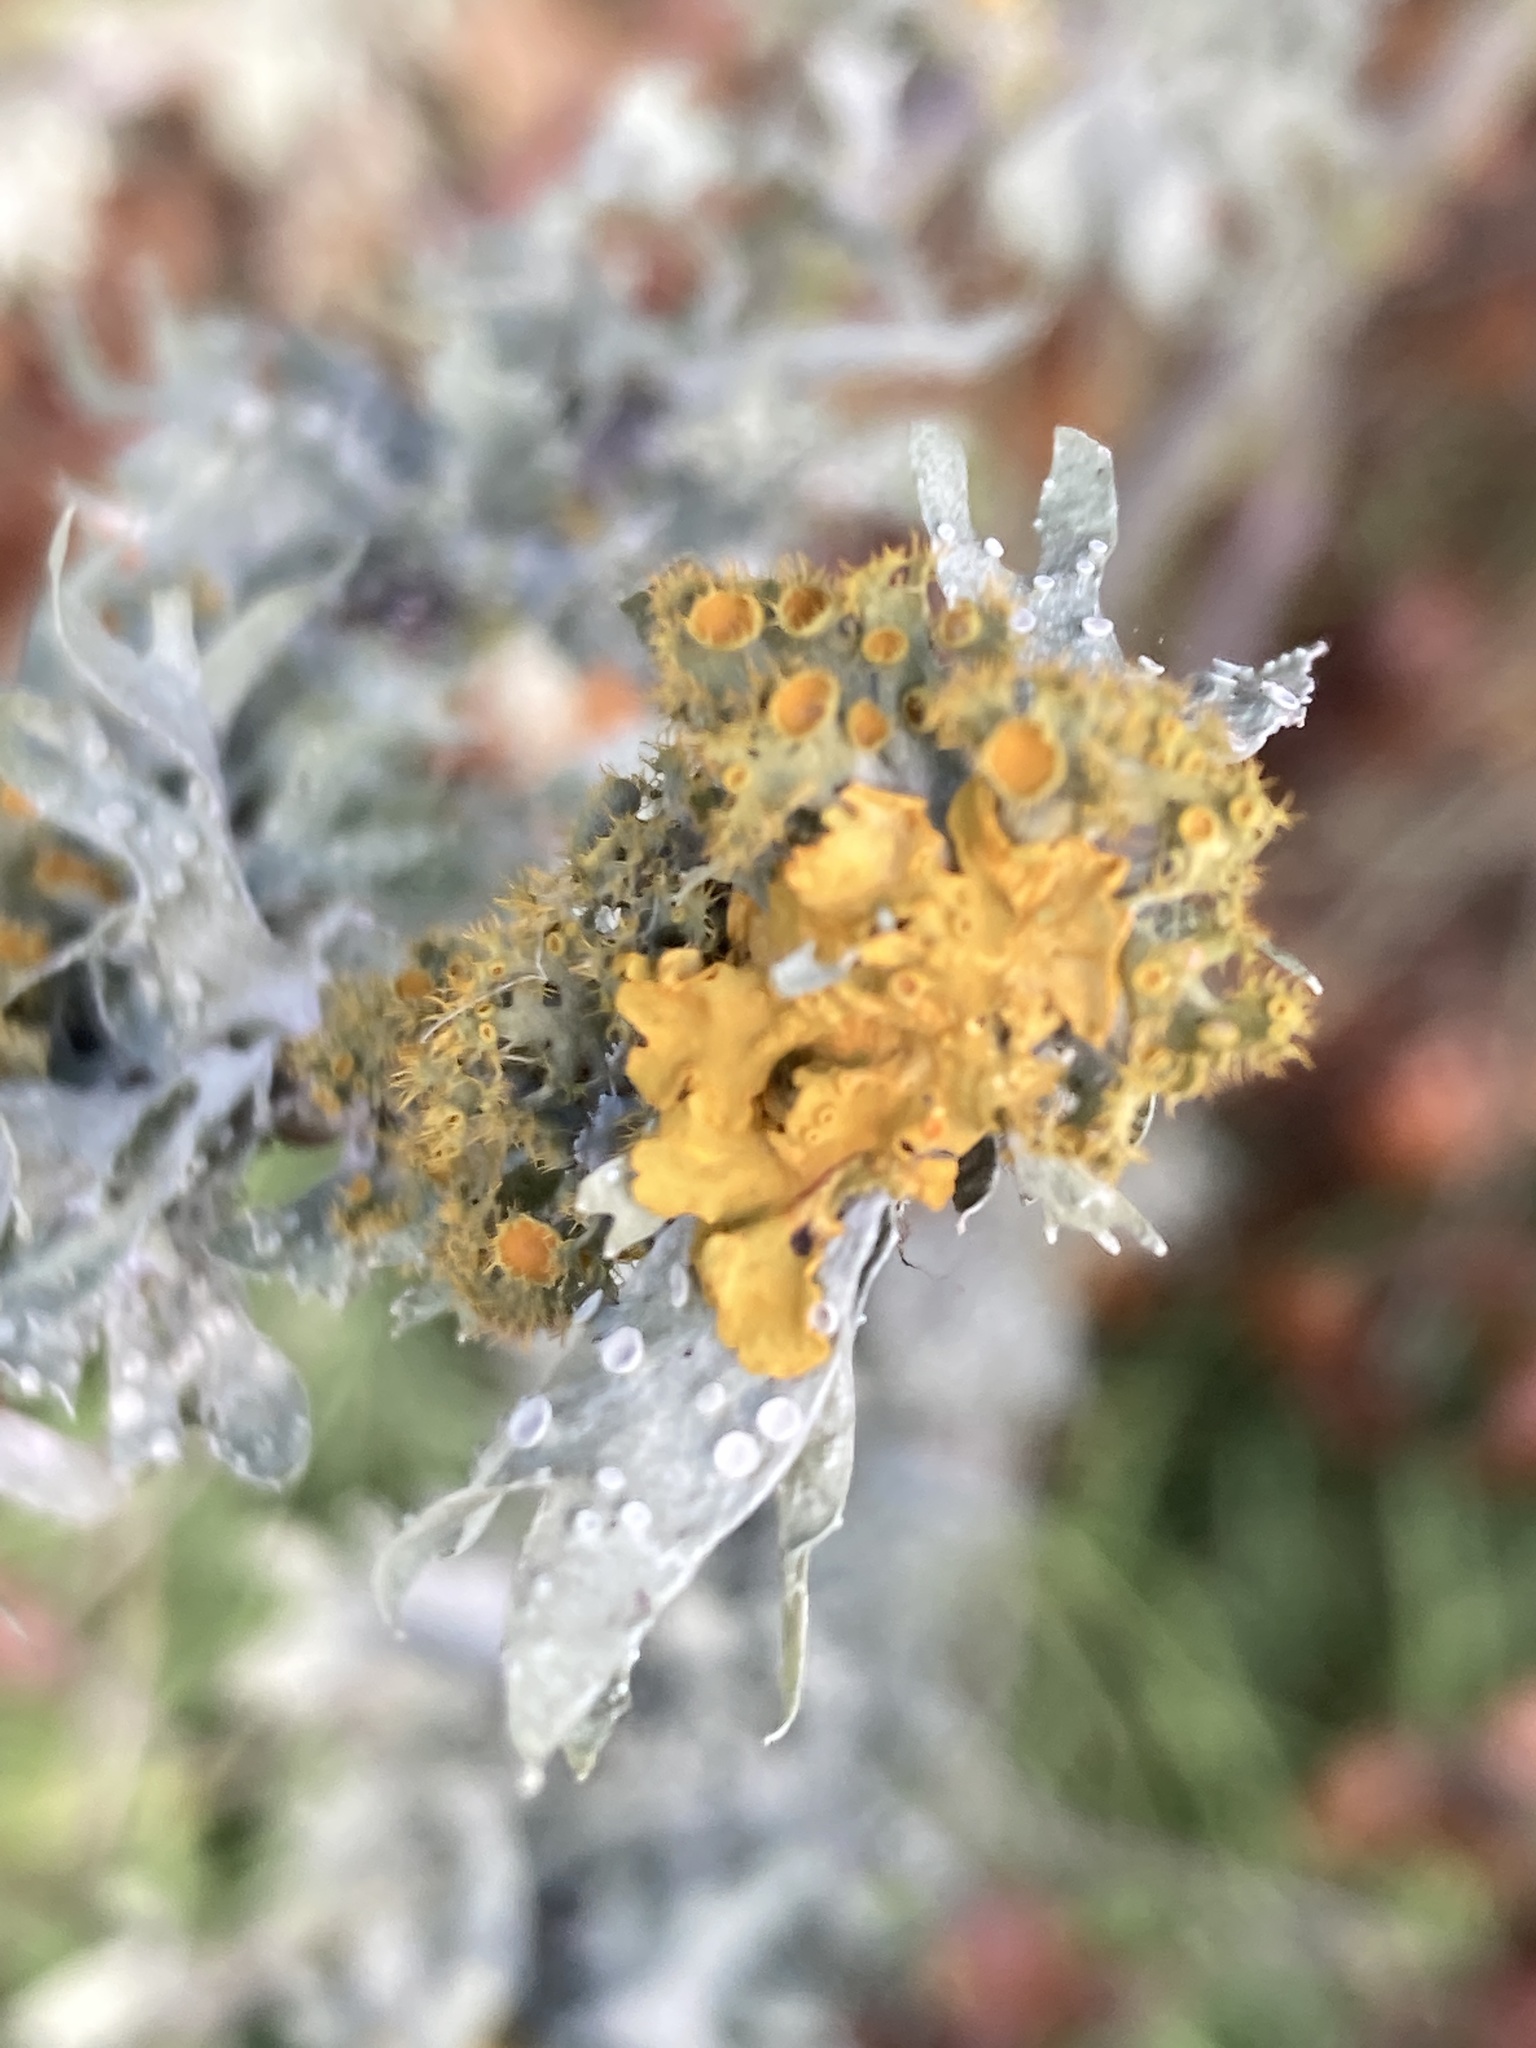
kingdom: Fungi
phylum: Ascomycota
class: Lecanoromycetes
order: Teloschistales
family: Teloschistaceae
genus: Niorma
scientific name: Niorma chrysophthalma
